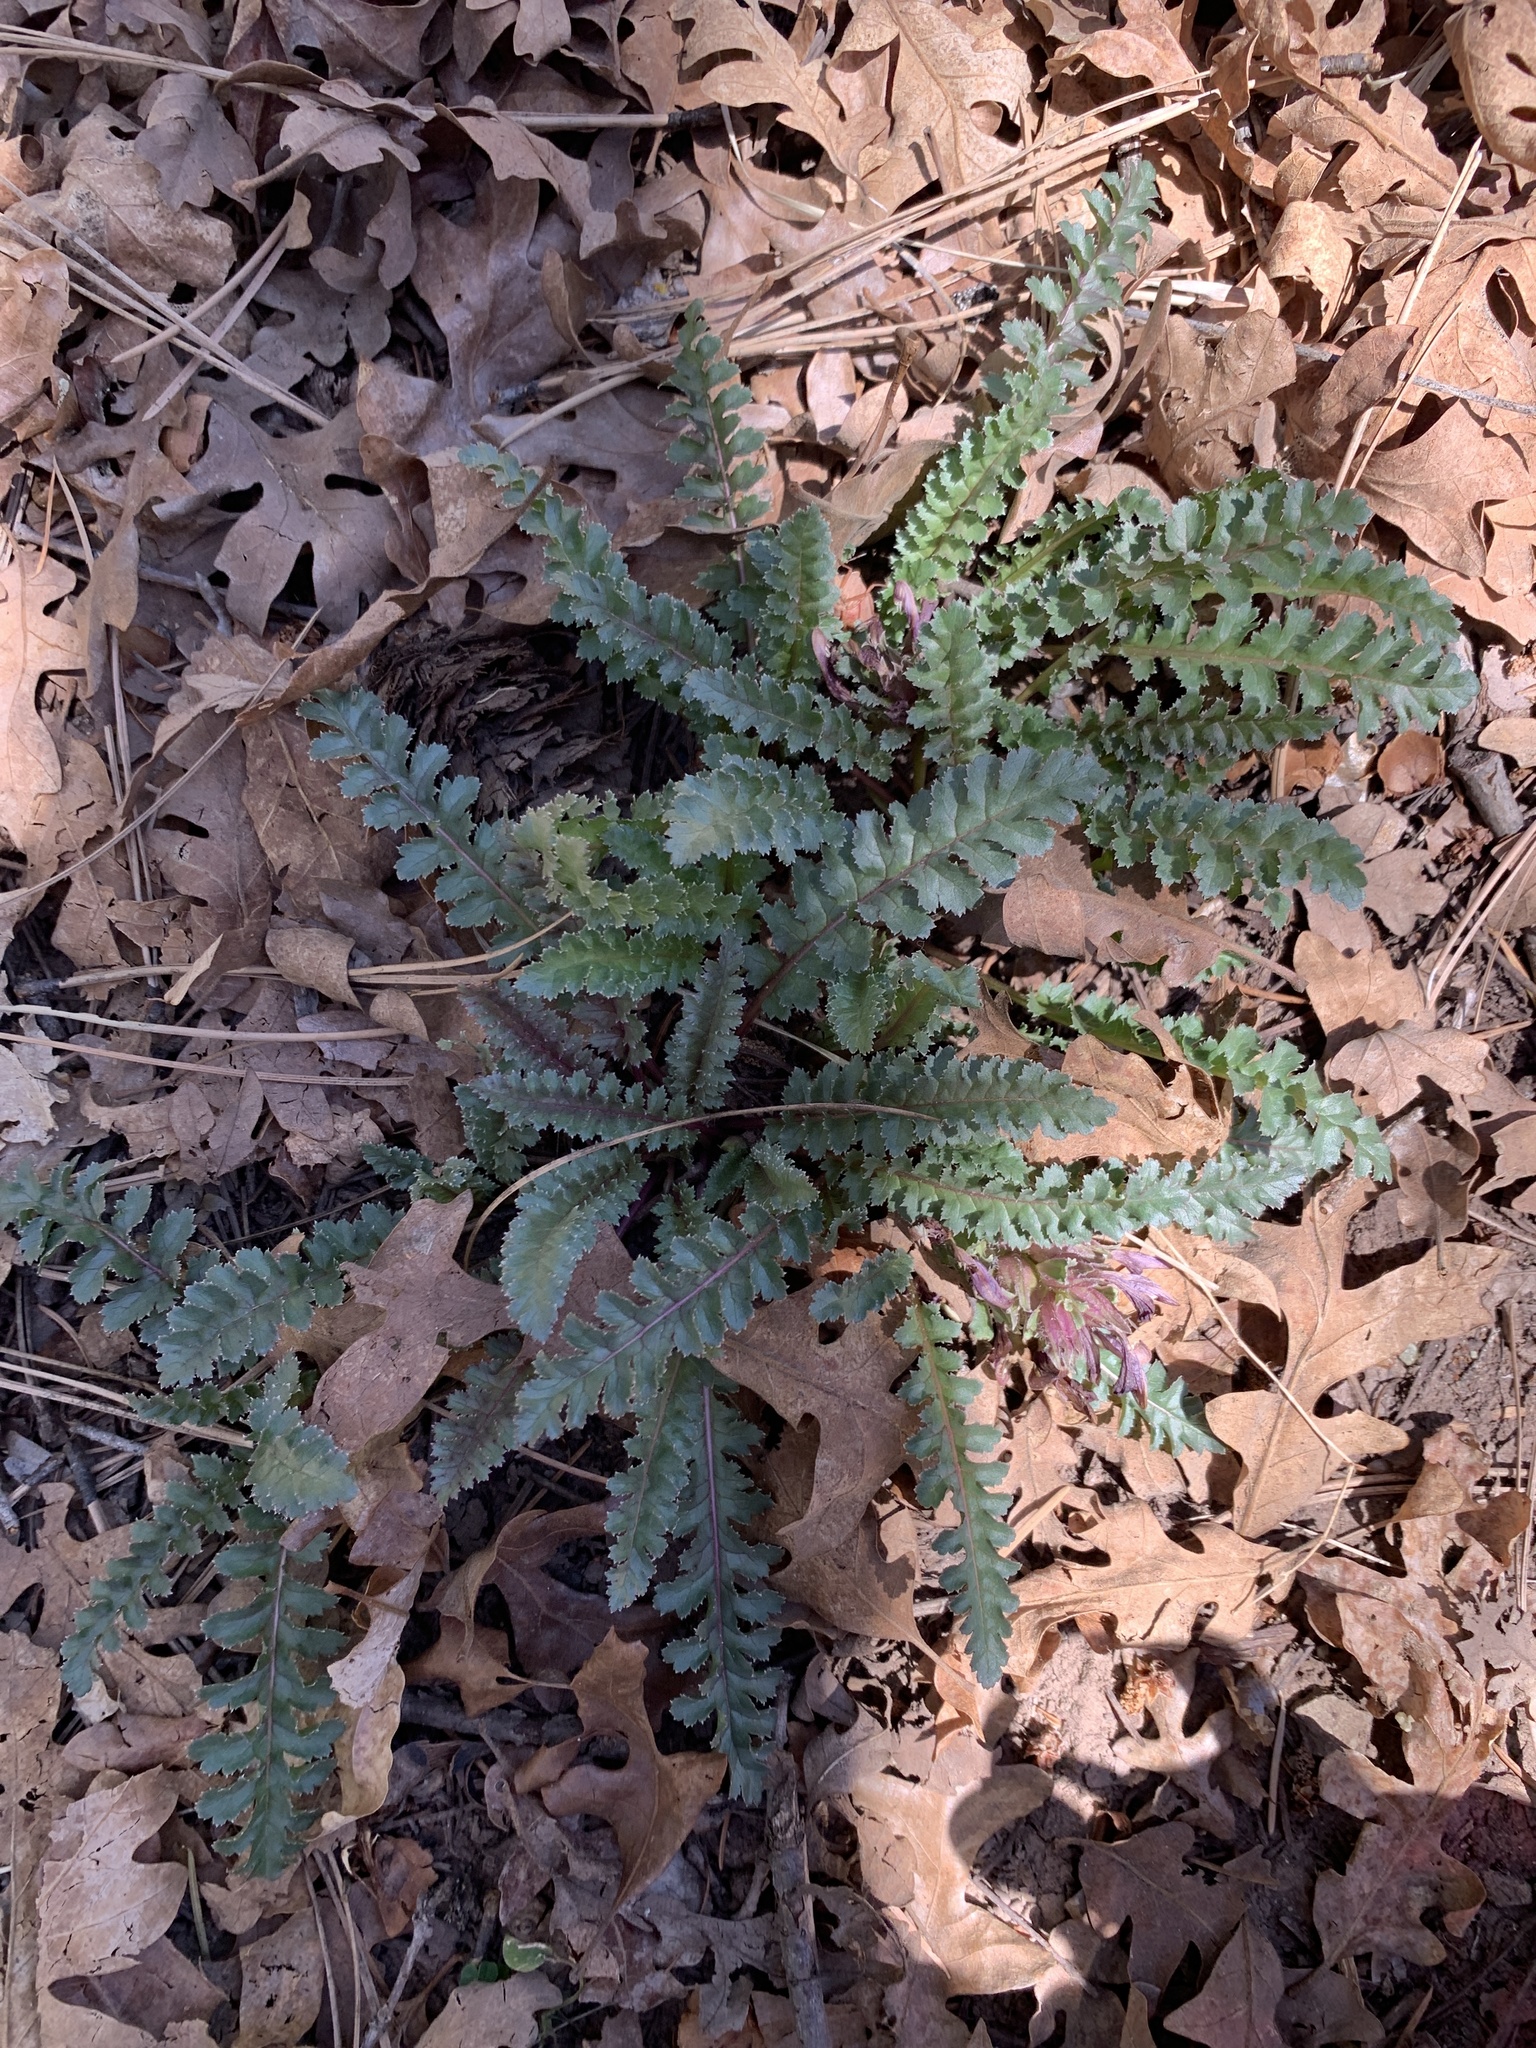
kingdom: Plantae
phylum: Tracheophyta
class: Magnoliopsida
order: Lamiales
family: Orobanchaceae
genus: Pedicularis
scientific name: Pedicularis centranthera
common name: Dwarf lousewort
